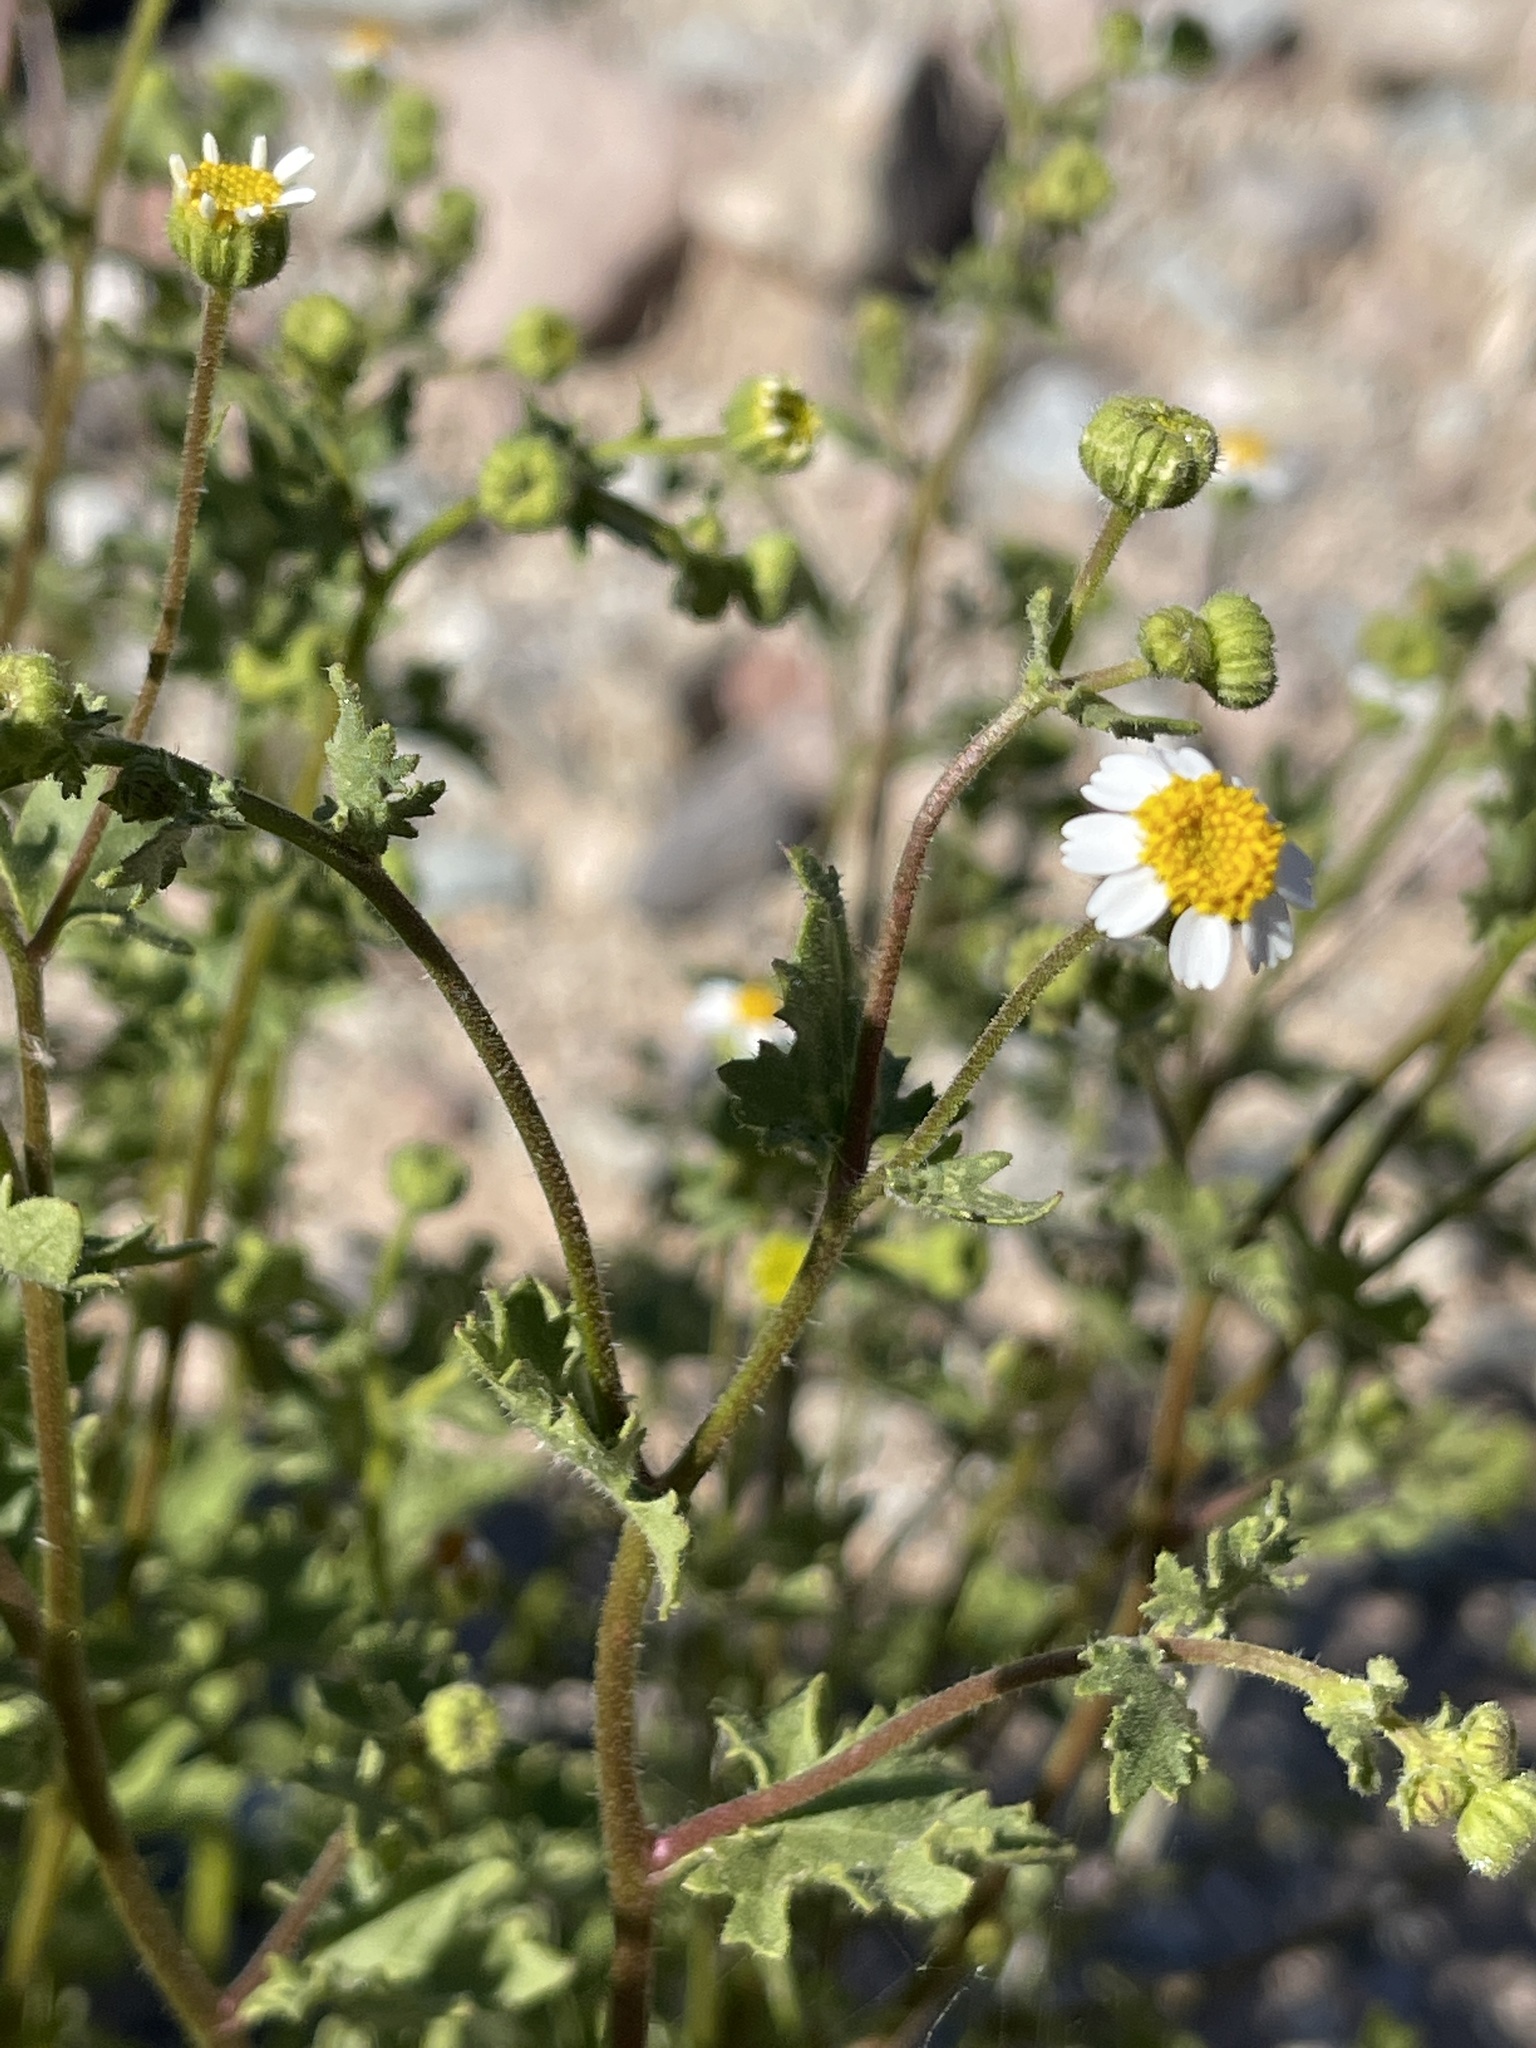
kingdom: Plantae
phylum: Tracheophyta
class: Magnoliopsida
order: Asterales
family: Asteraceae
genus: Laphamia
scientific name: Laphamia emoryi
